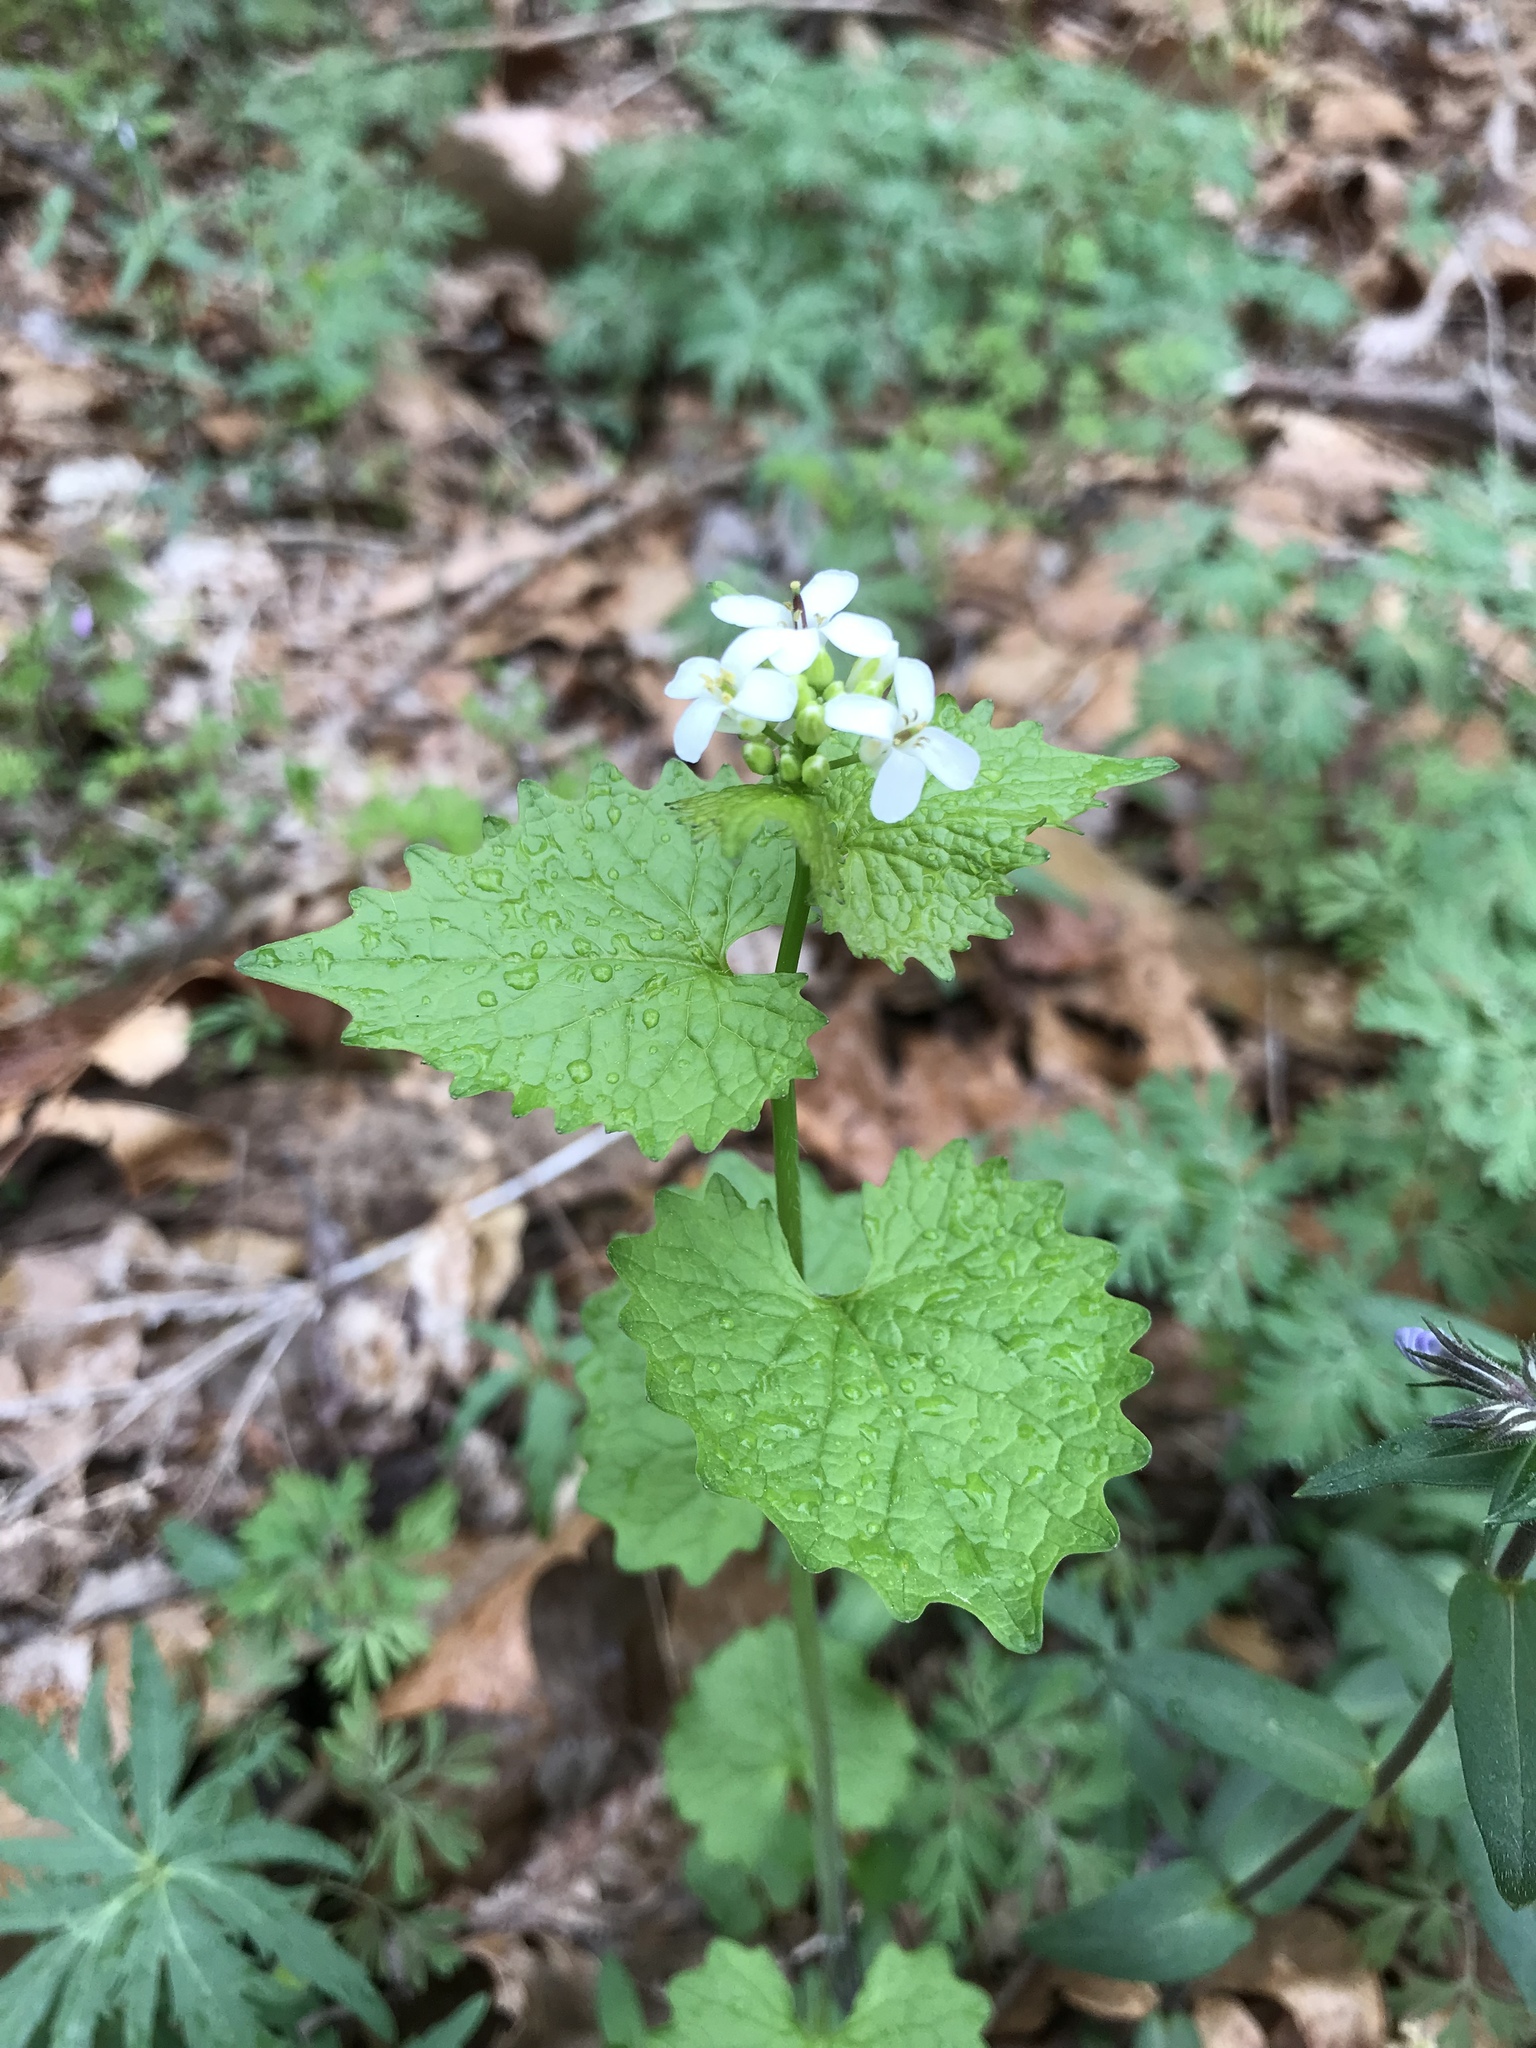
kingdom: Plantae
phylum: Tracheophyta
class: Magnoliopsida
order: Brassicales
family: Brassicaceae
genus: Alliaria
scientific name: Alliaria petiolata
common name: Garlic mustard
